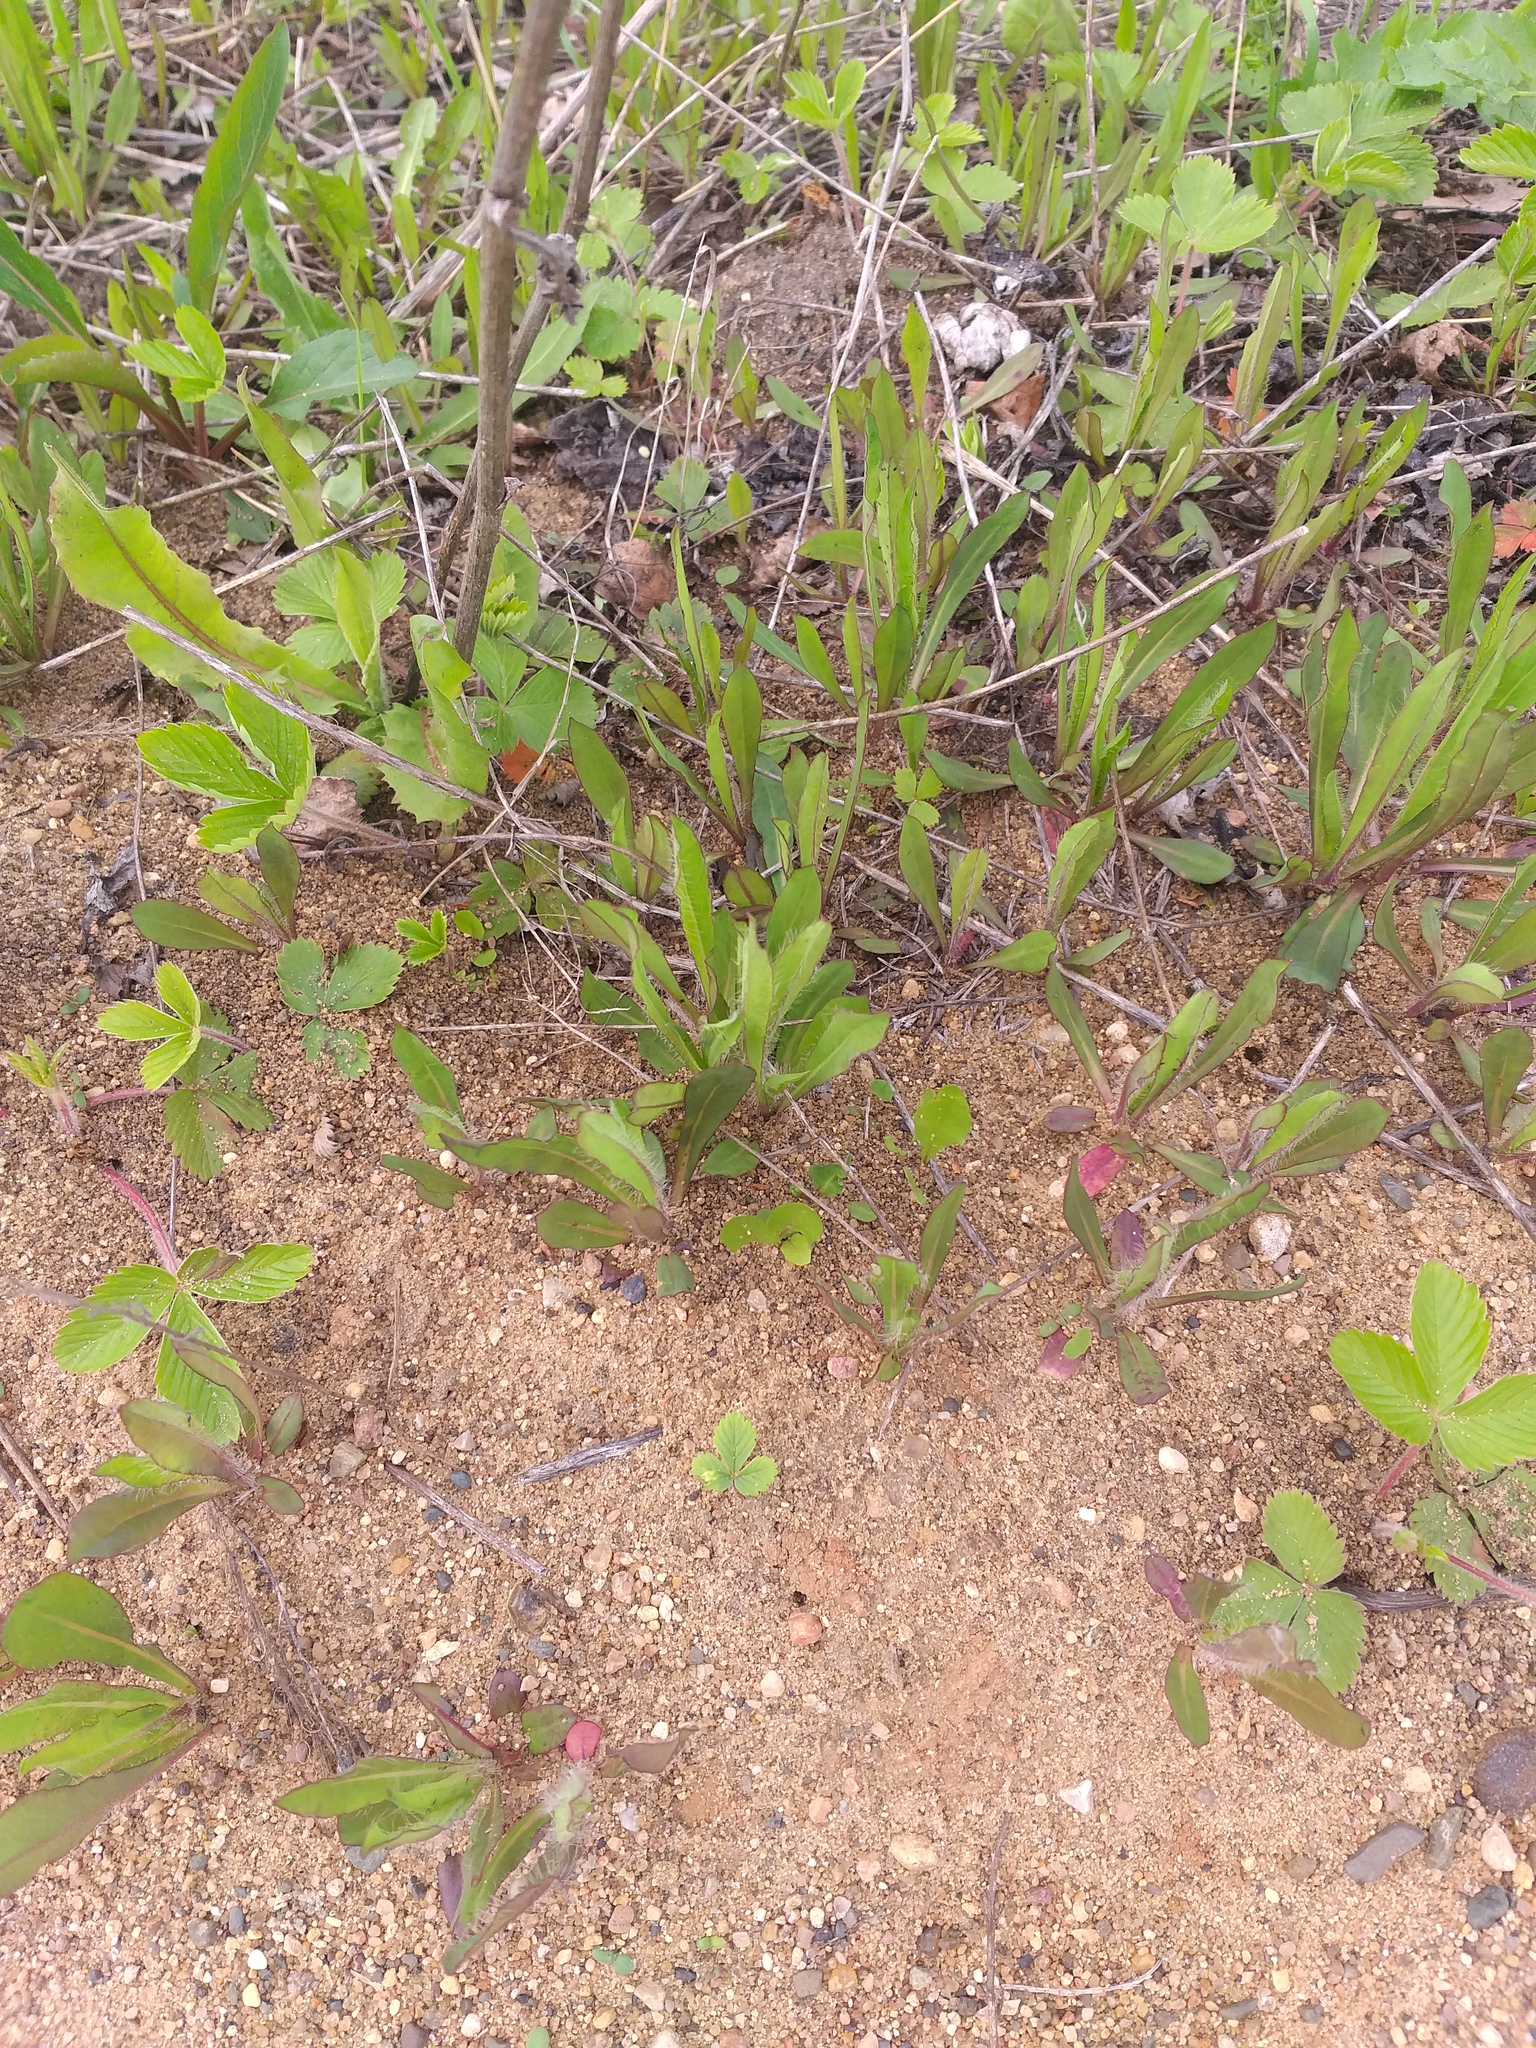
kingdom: Plantae
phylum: Tracheophyta
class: Magnoliopsida
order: Asterales
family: Asteraceae
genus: Pilosella
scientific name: Pilosella
